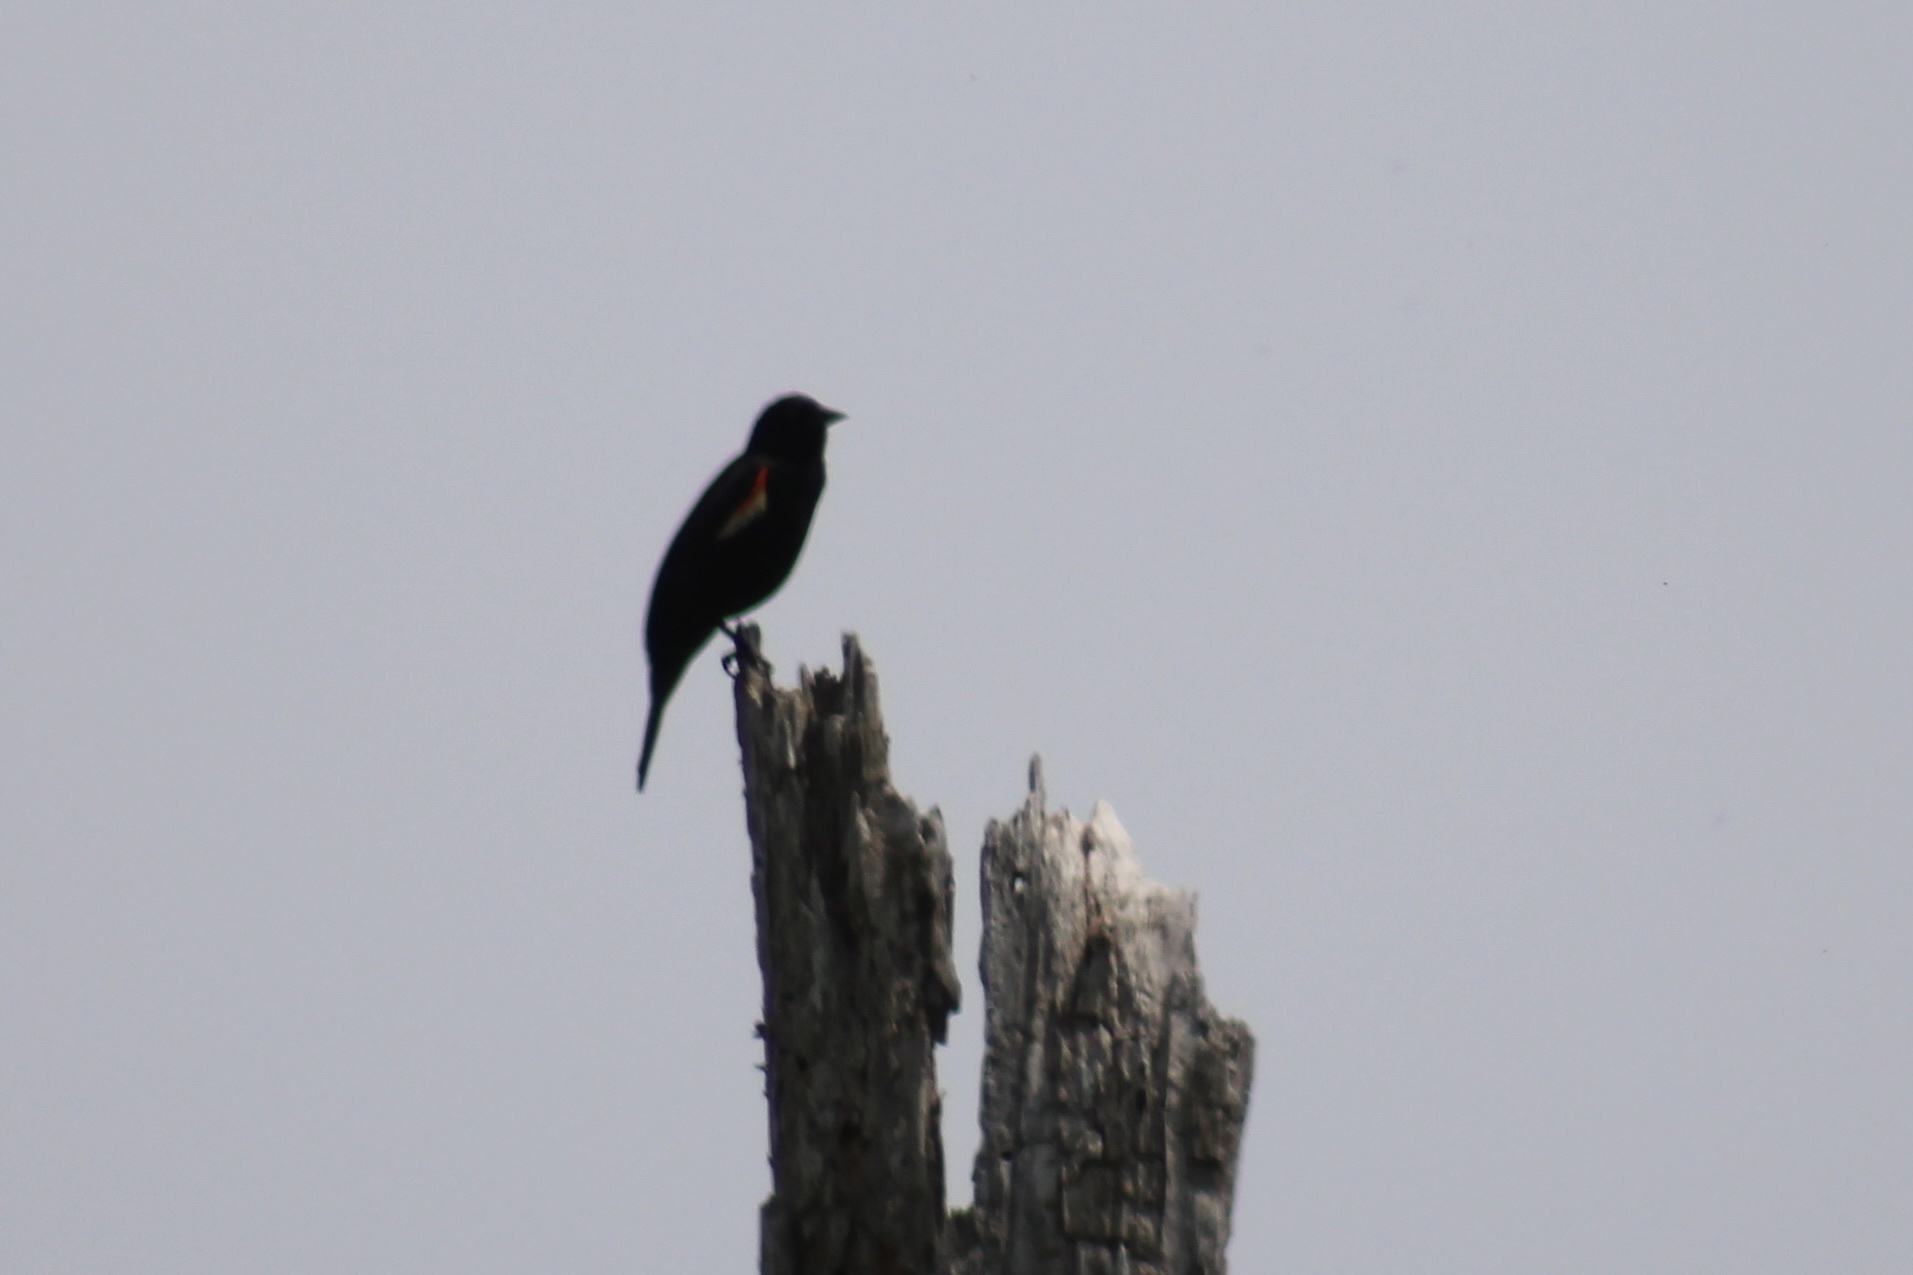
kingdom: Animalia
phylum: Chordata
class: Aves
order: Passeriformes
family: Icteridae
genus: Agelaius
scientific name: Agelaius phoeniceus
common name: Red-winged blackbird
